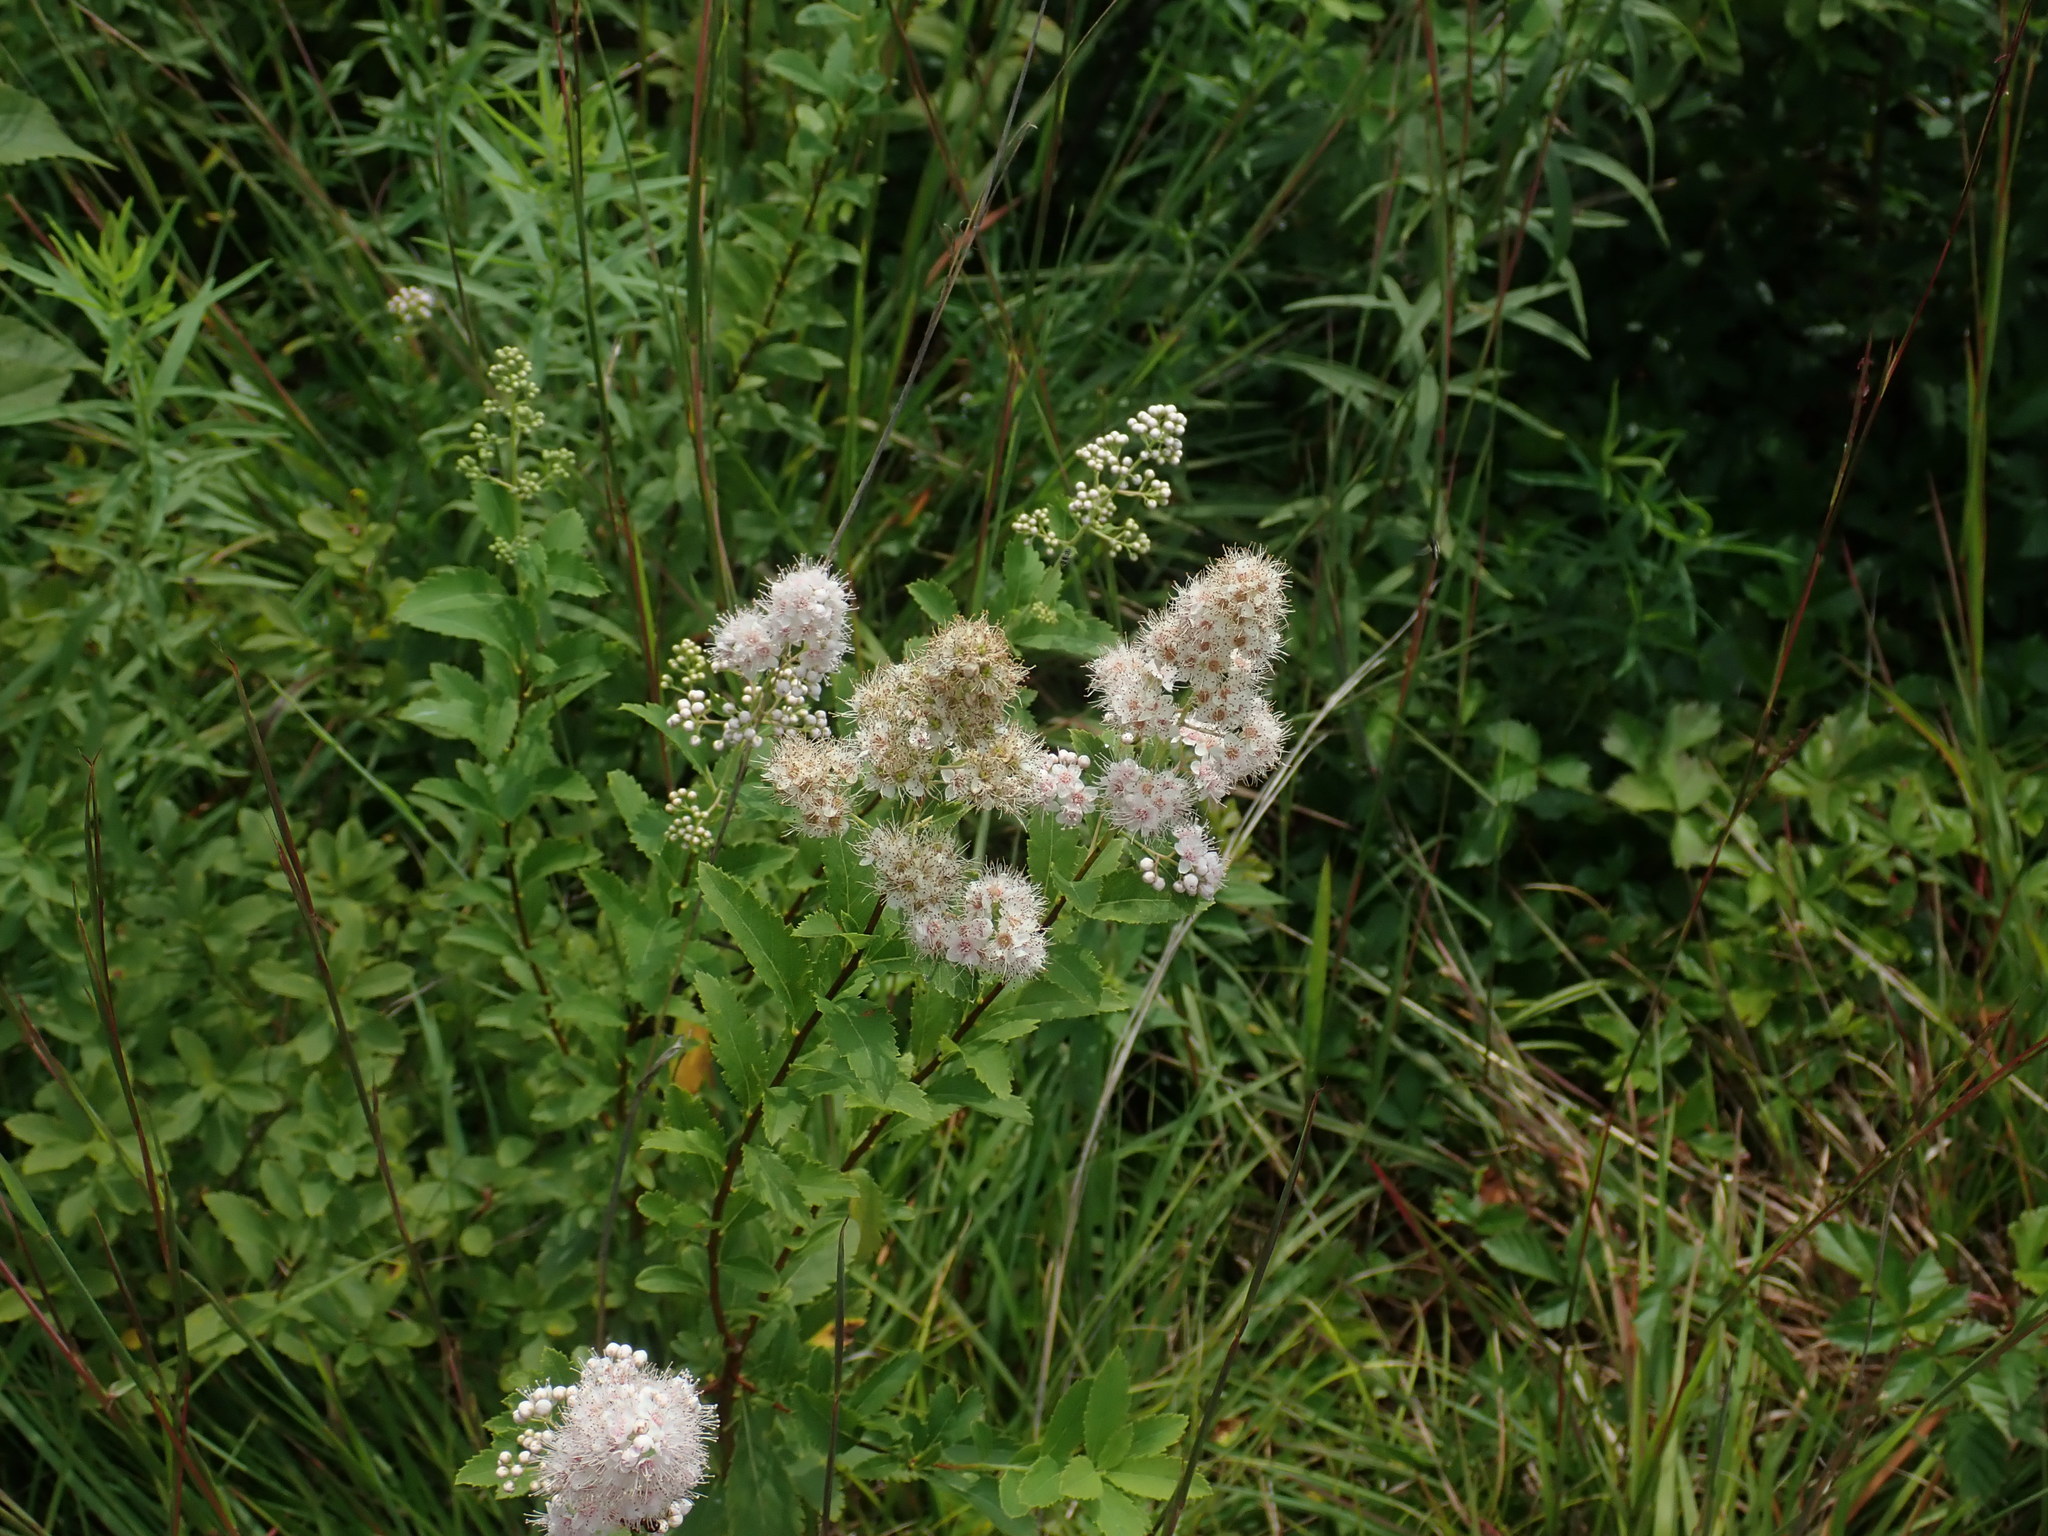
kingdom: Plantae
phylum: Tracheophyta
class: Magnoliopsida
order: Rosales
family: Rosaceae
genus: Spiraea
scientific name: Spiraea alba
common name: Pale bridewort
